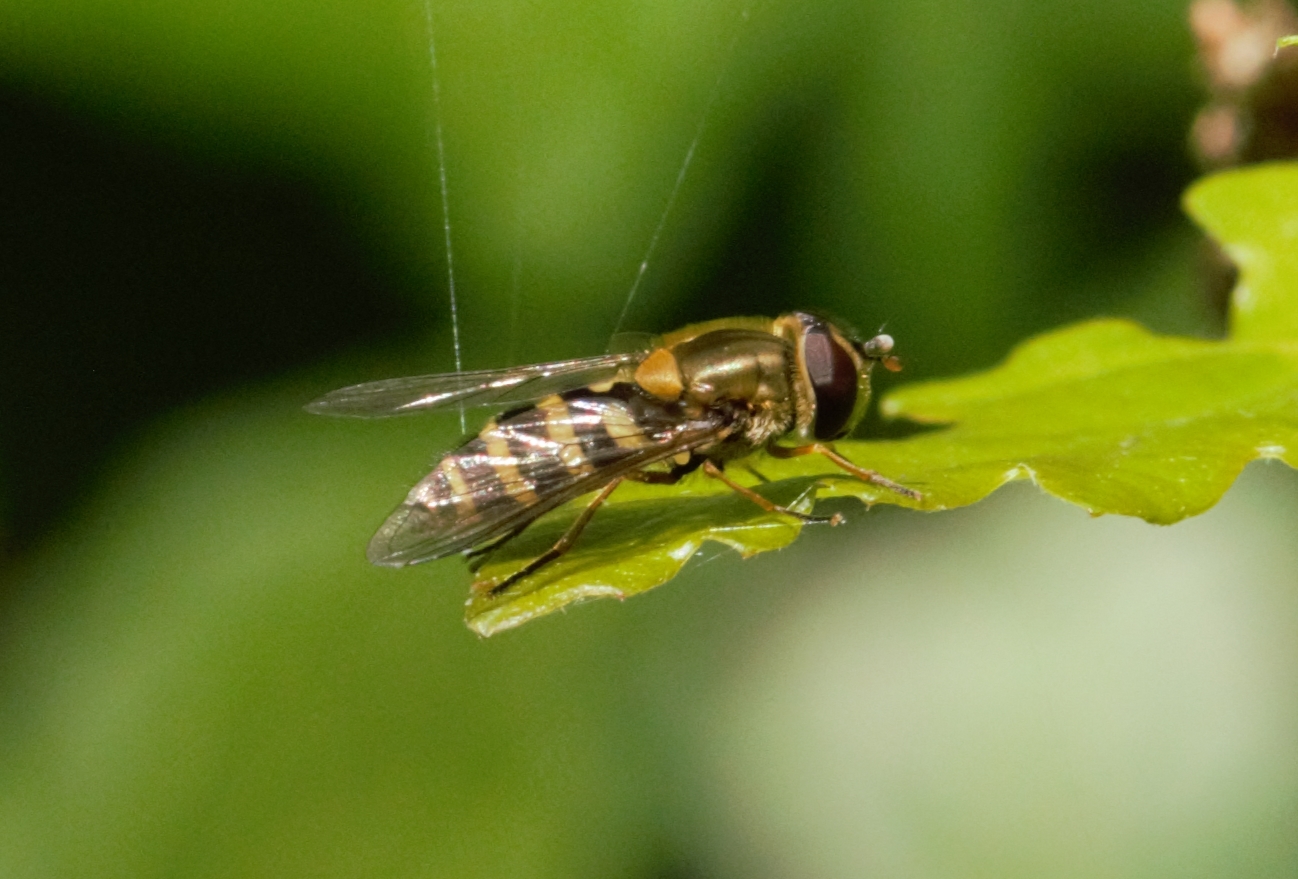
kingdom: Animalia
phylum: Arthropoda
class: Insecta
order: Diptera
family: Syrphidae
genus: Syrphus
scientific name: Syrphus
